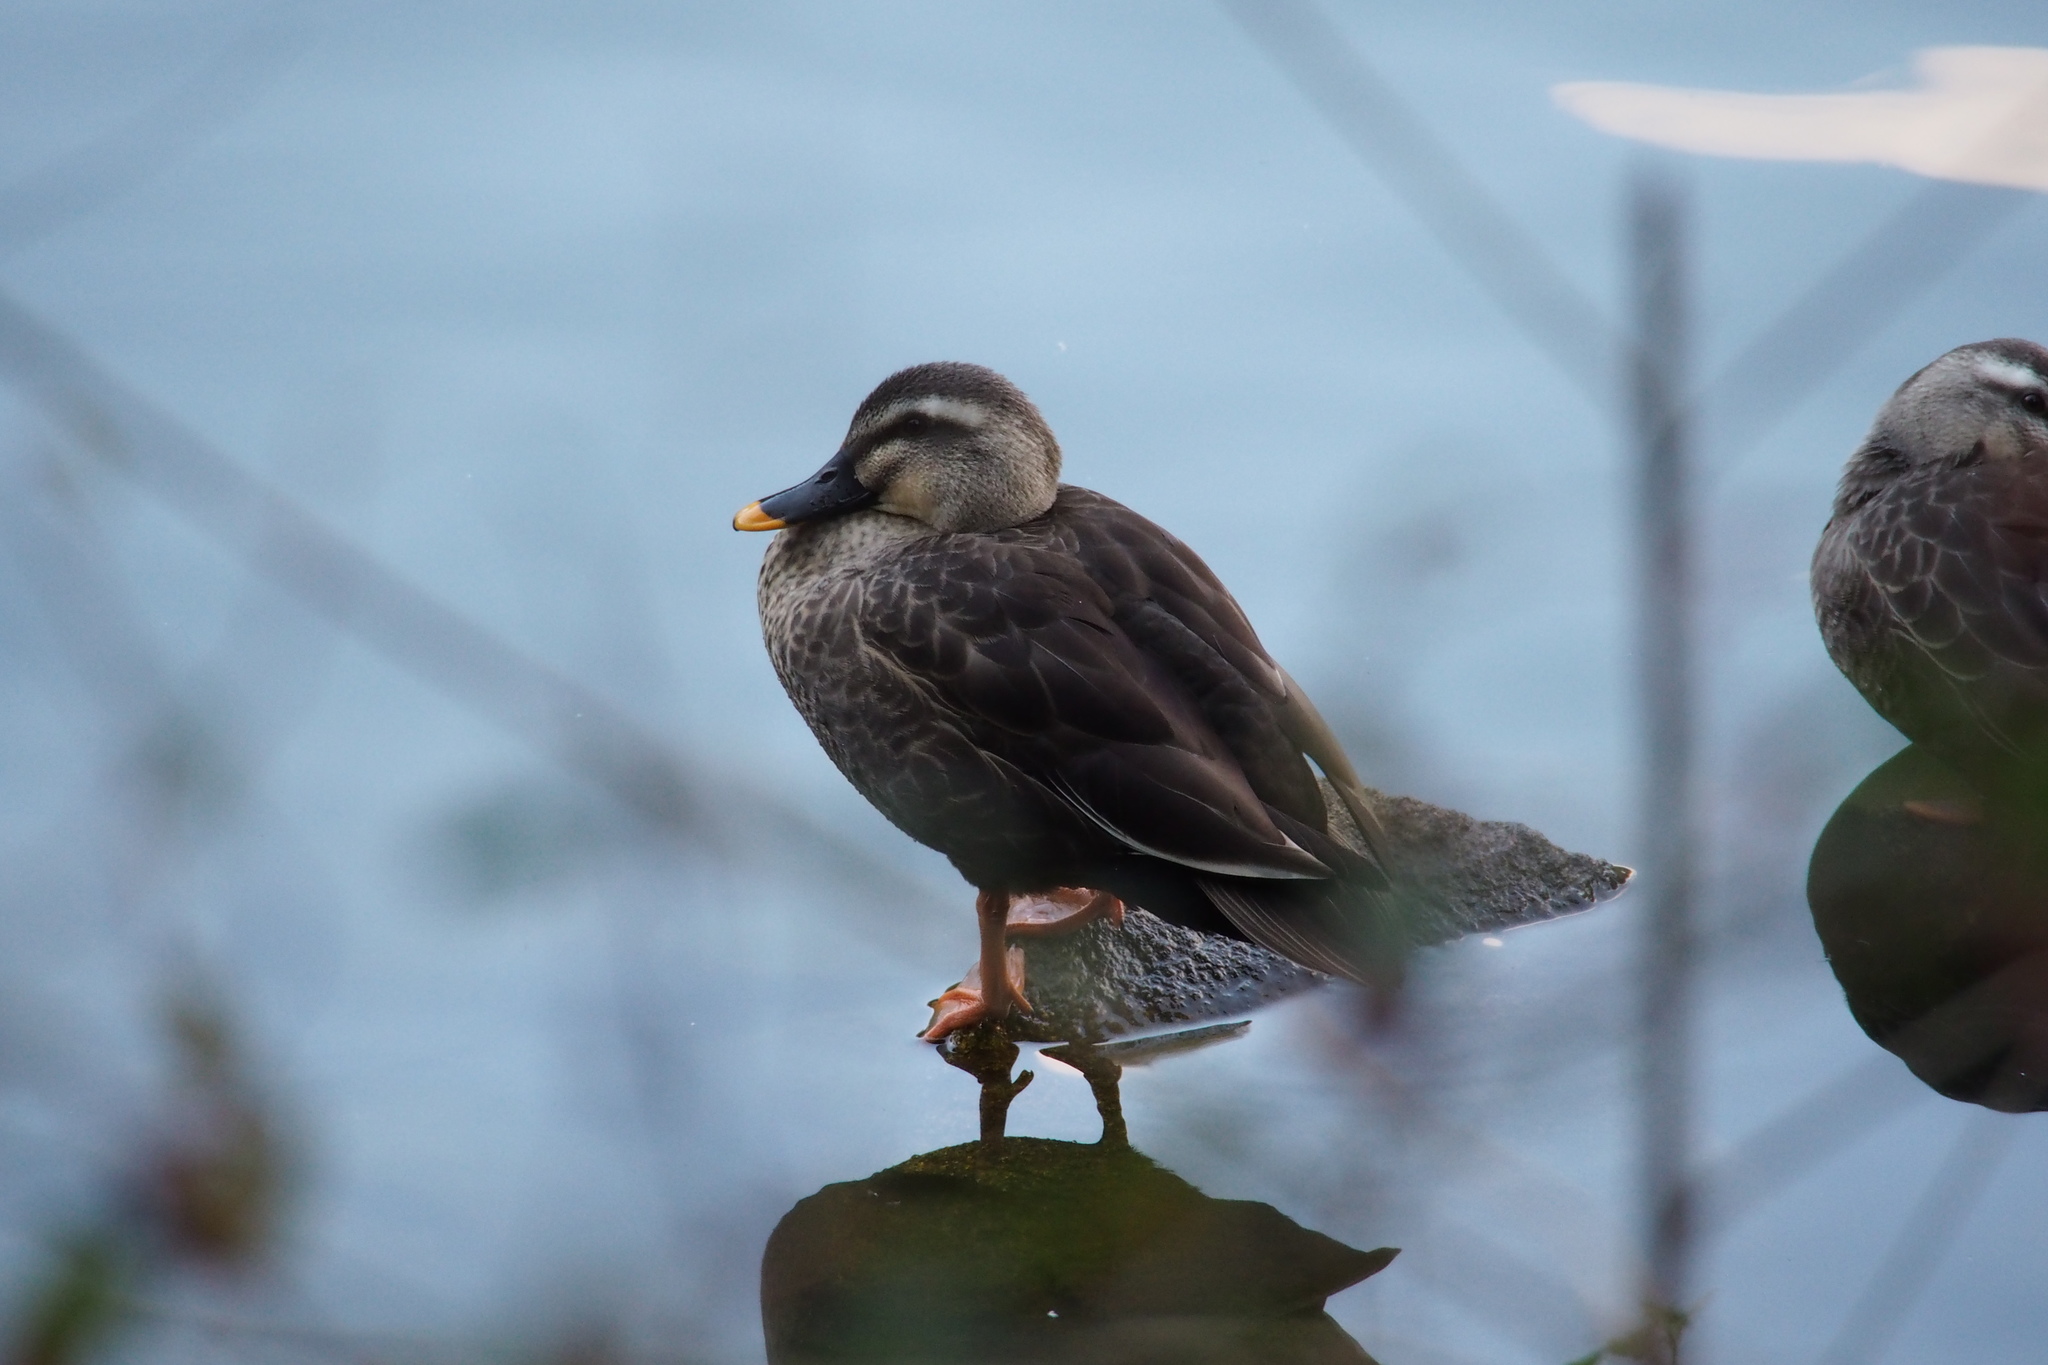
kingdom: Animalia
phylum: Chordata
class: Aves
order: Anseriformes
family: Anatidae
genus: Anas
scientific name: Anas zonorhyncha
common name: Eastern spot-billed duck
